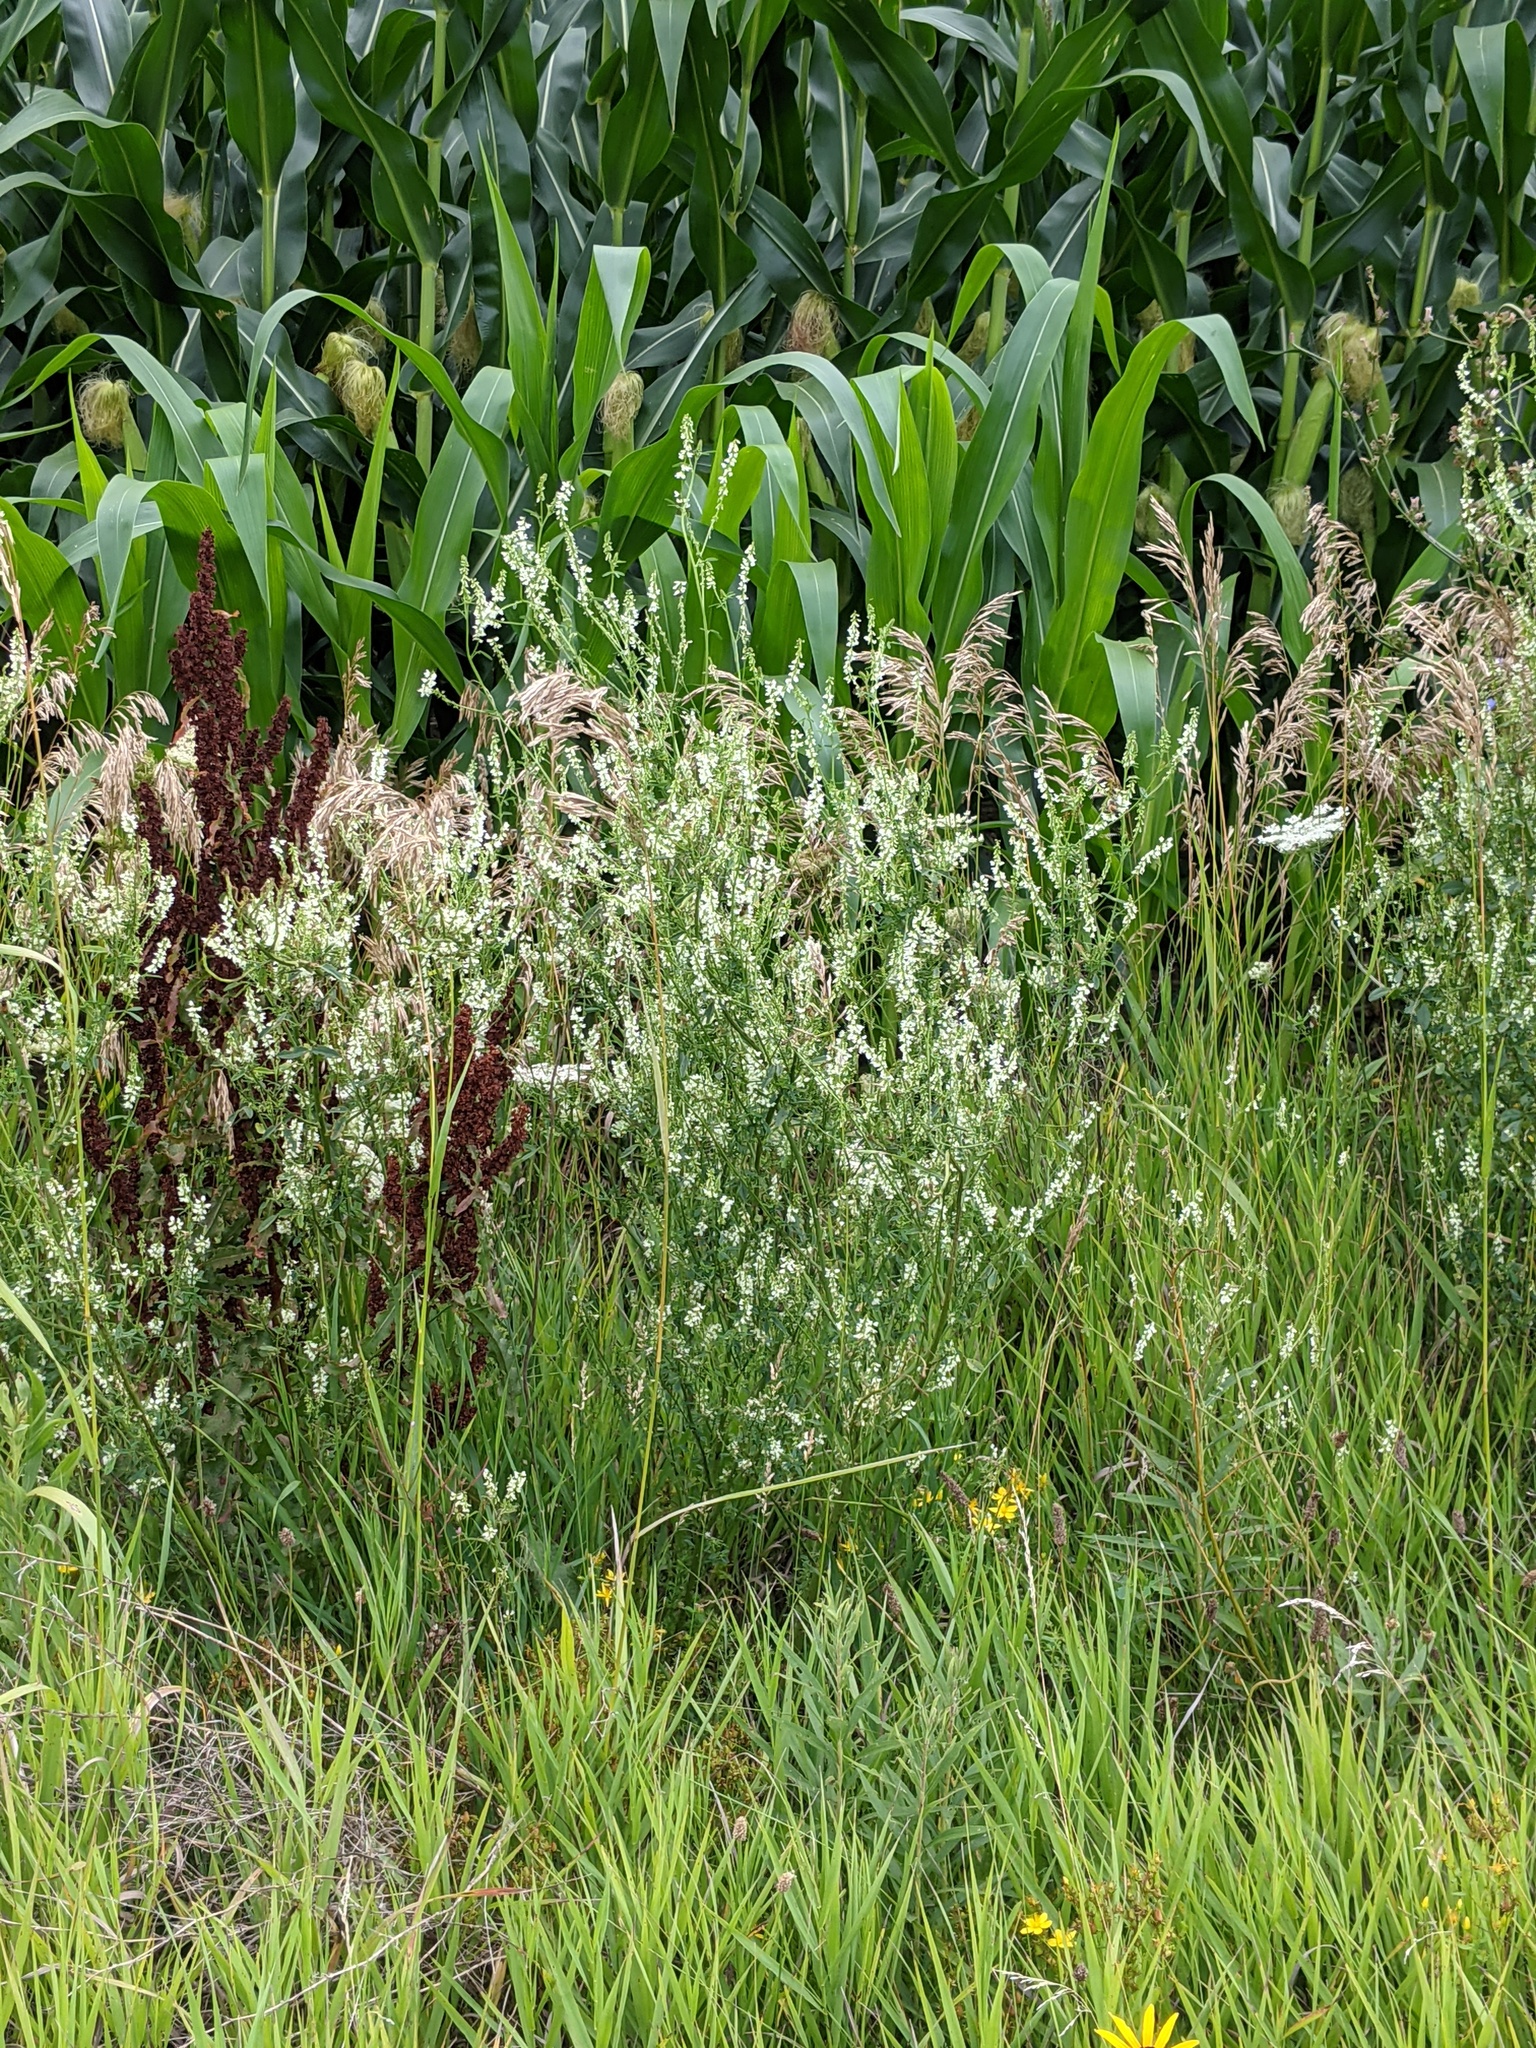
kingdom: Plantae
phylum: Tracheophyta
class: Magnoliopsida
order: Fabales
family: Fabaceae
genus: Melilotus
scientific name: Melilotus albus
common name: White melilot
